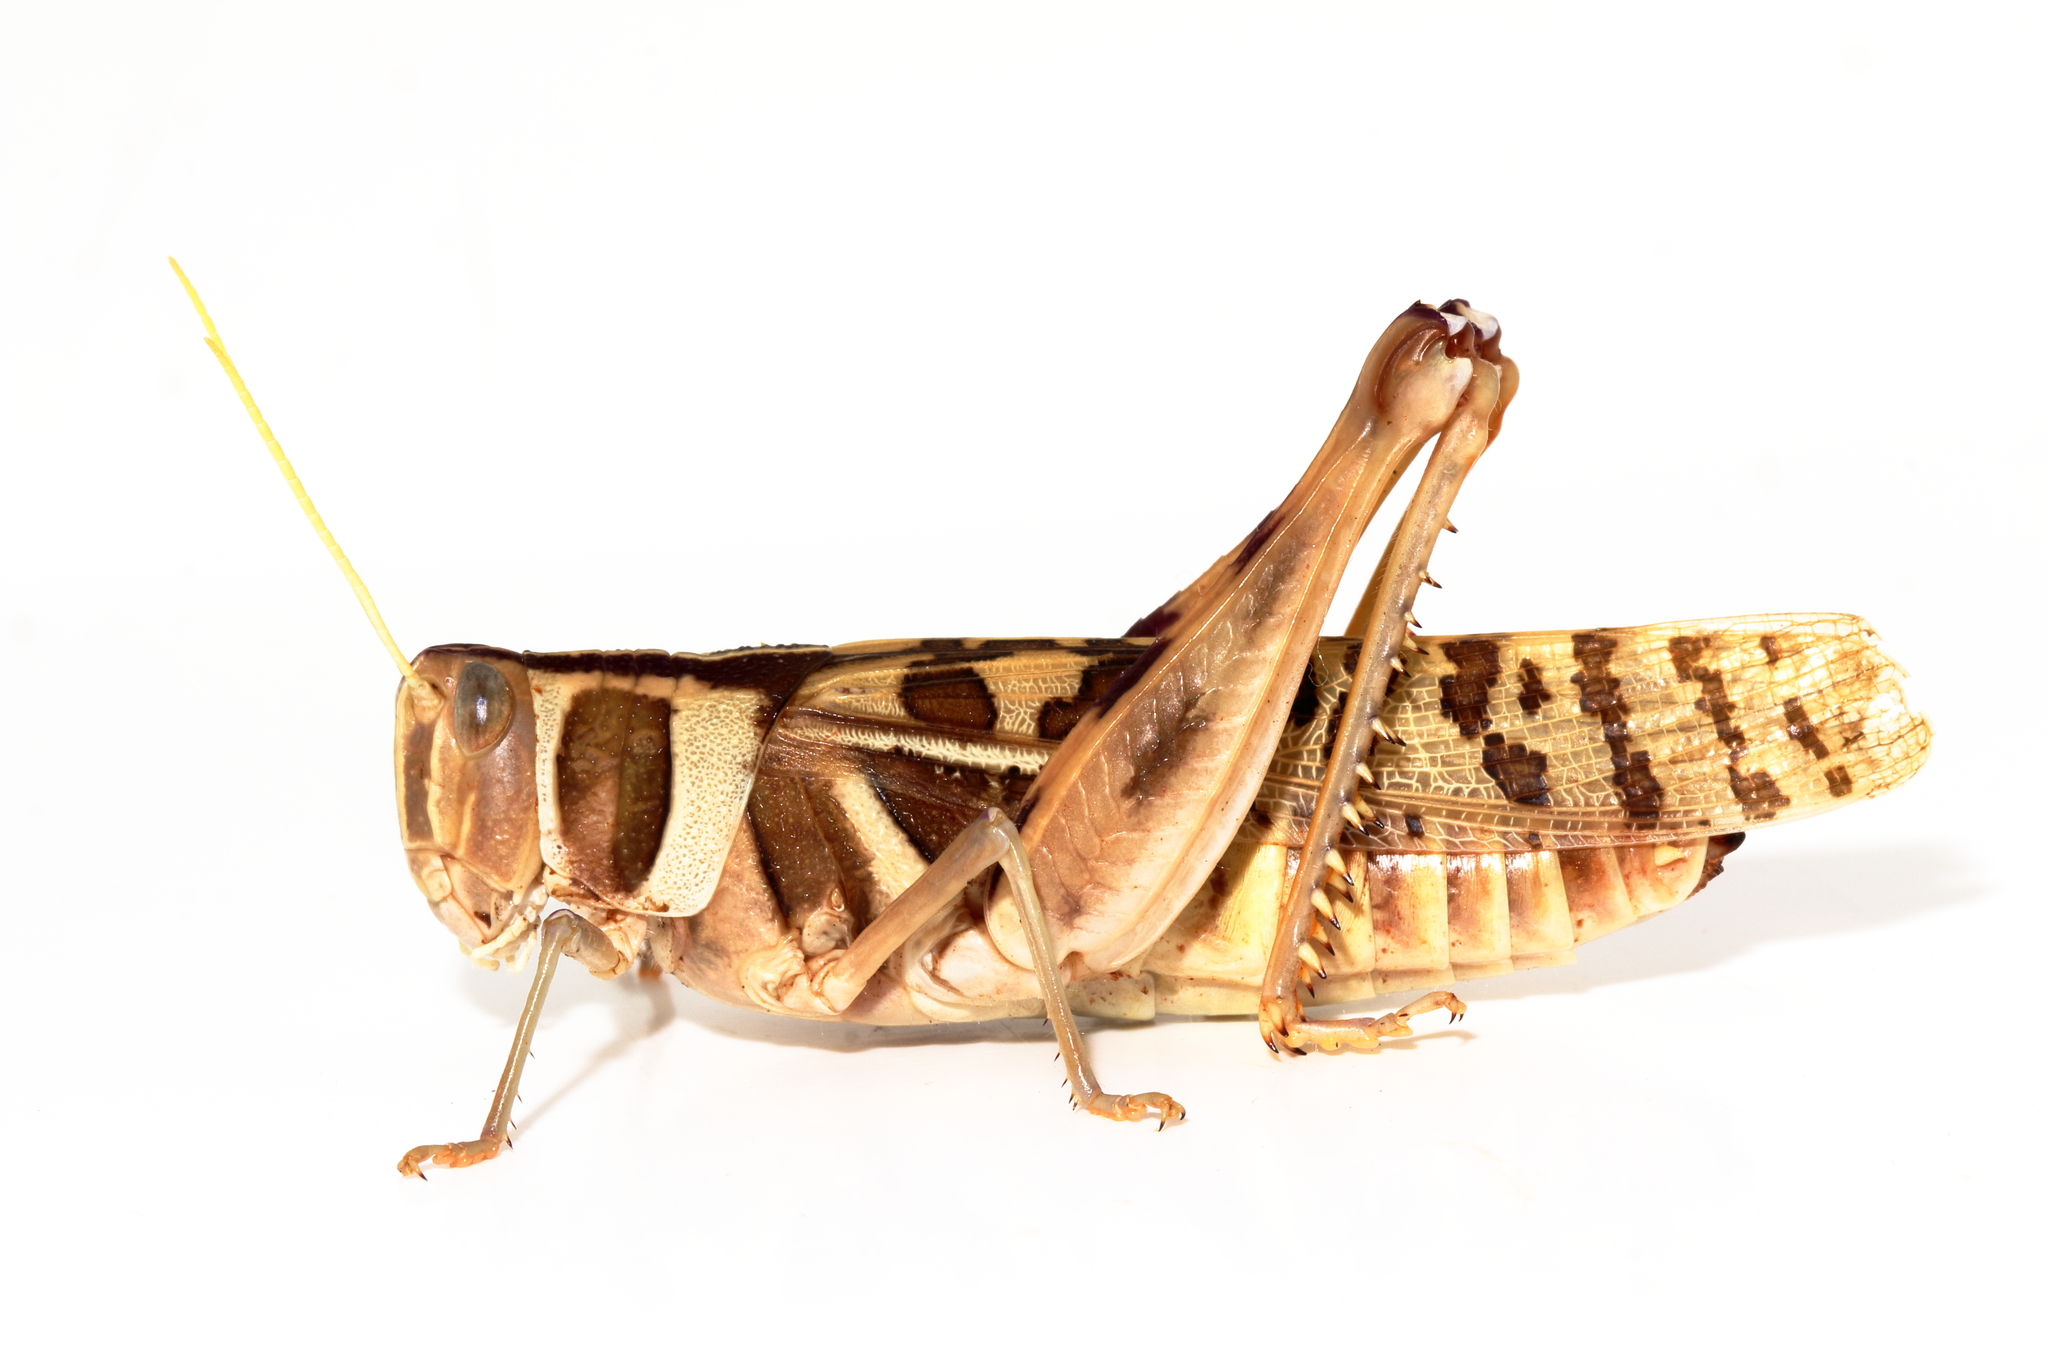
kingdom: Animalia
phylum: Arthropoda
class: Insecta
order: Orthoptera
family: Acrididae
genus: Stropis
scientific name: Stropis
